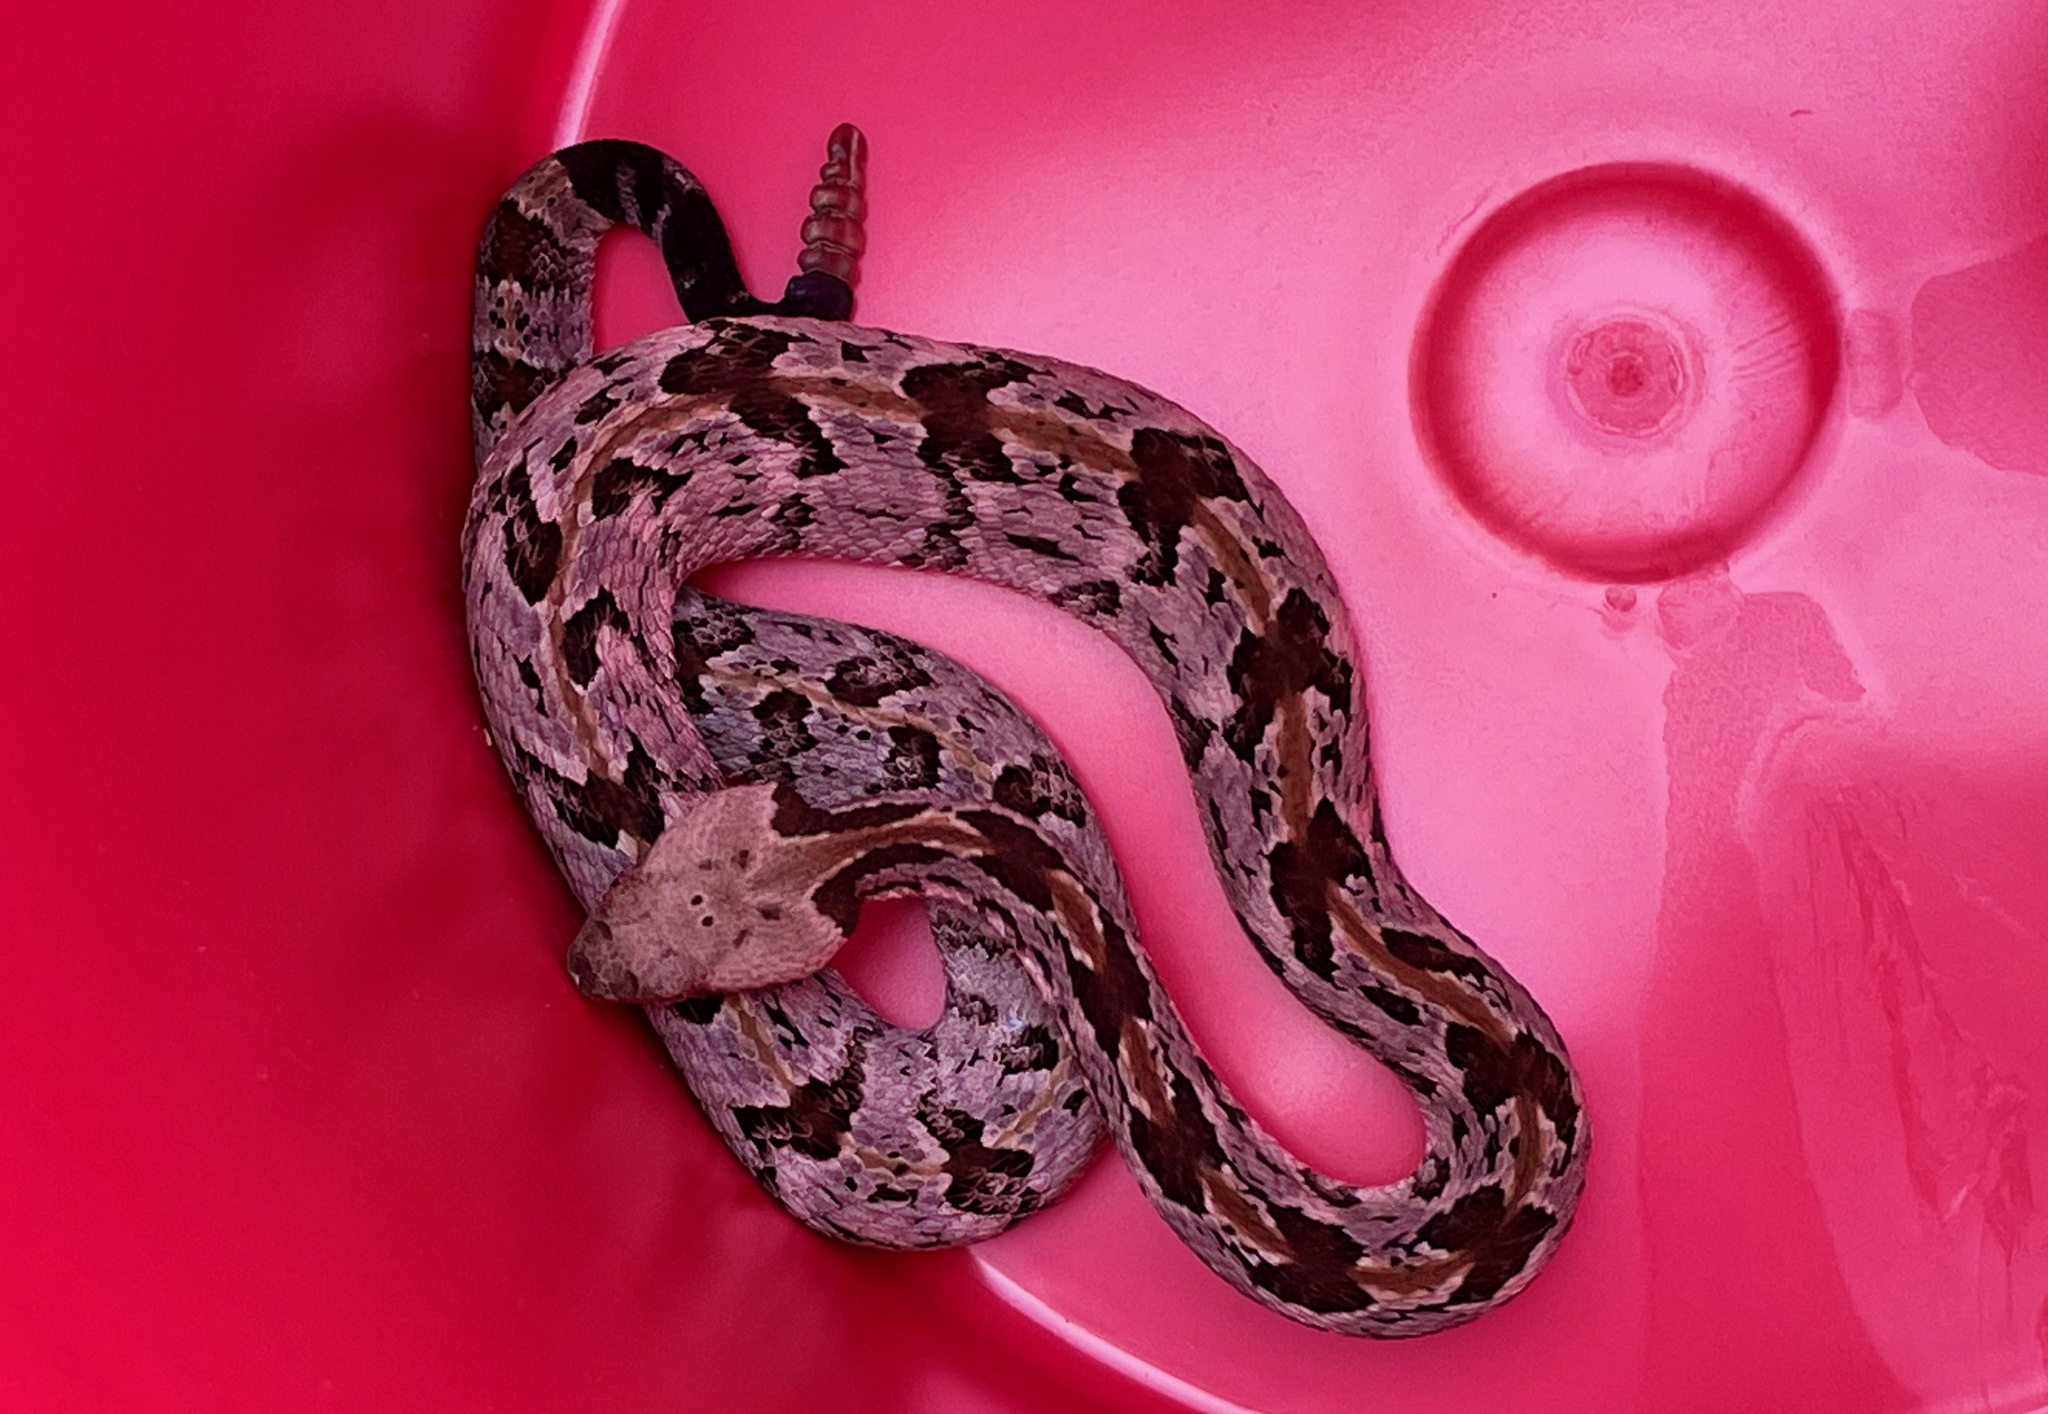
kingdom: Animalia
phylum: Chordata
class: Squamata
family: Viperidae
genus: Crotalus
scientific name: Crotalus horridus
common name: Timber rattlesnake
